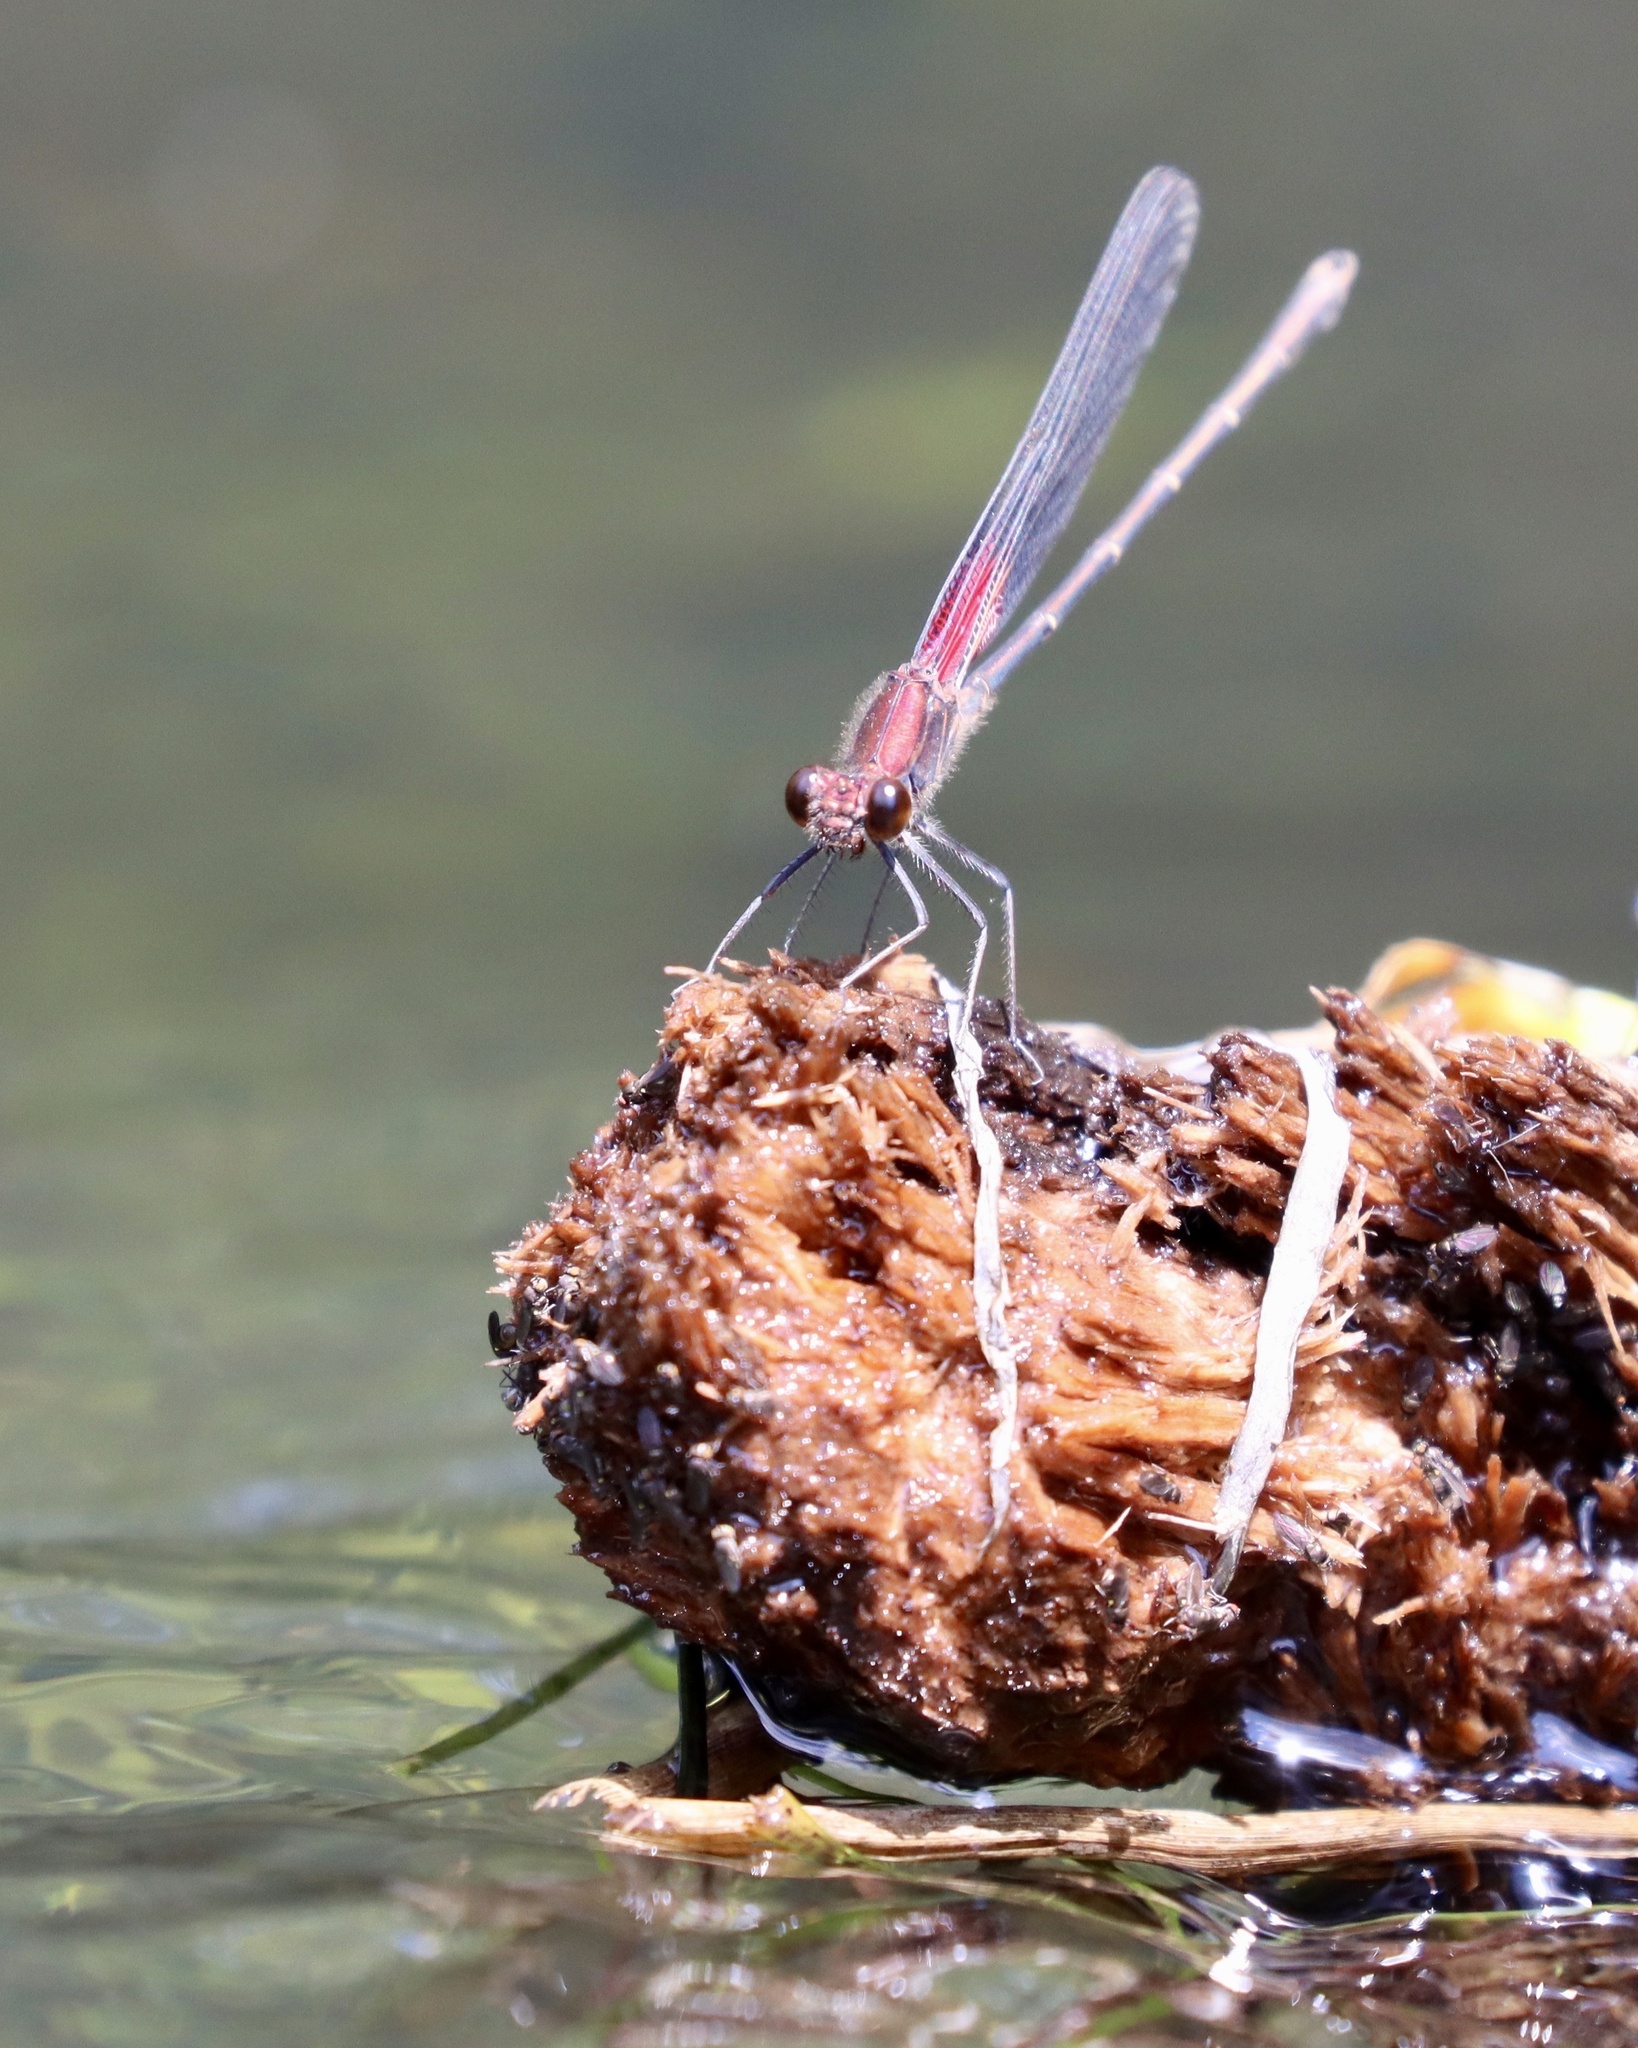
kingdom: Animalia
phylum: Arthropoda
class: Insecta
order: Odonata
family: Calopterygidae
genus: Hetaerina
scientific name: Hetaerina americana
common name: American rubyspot
